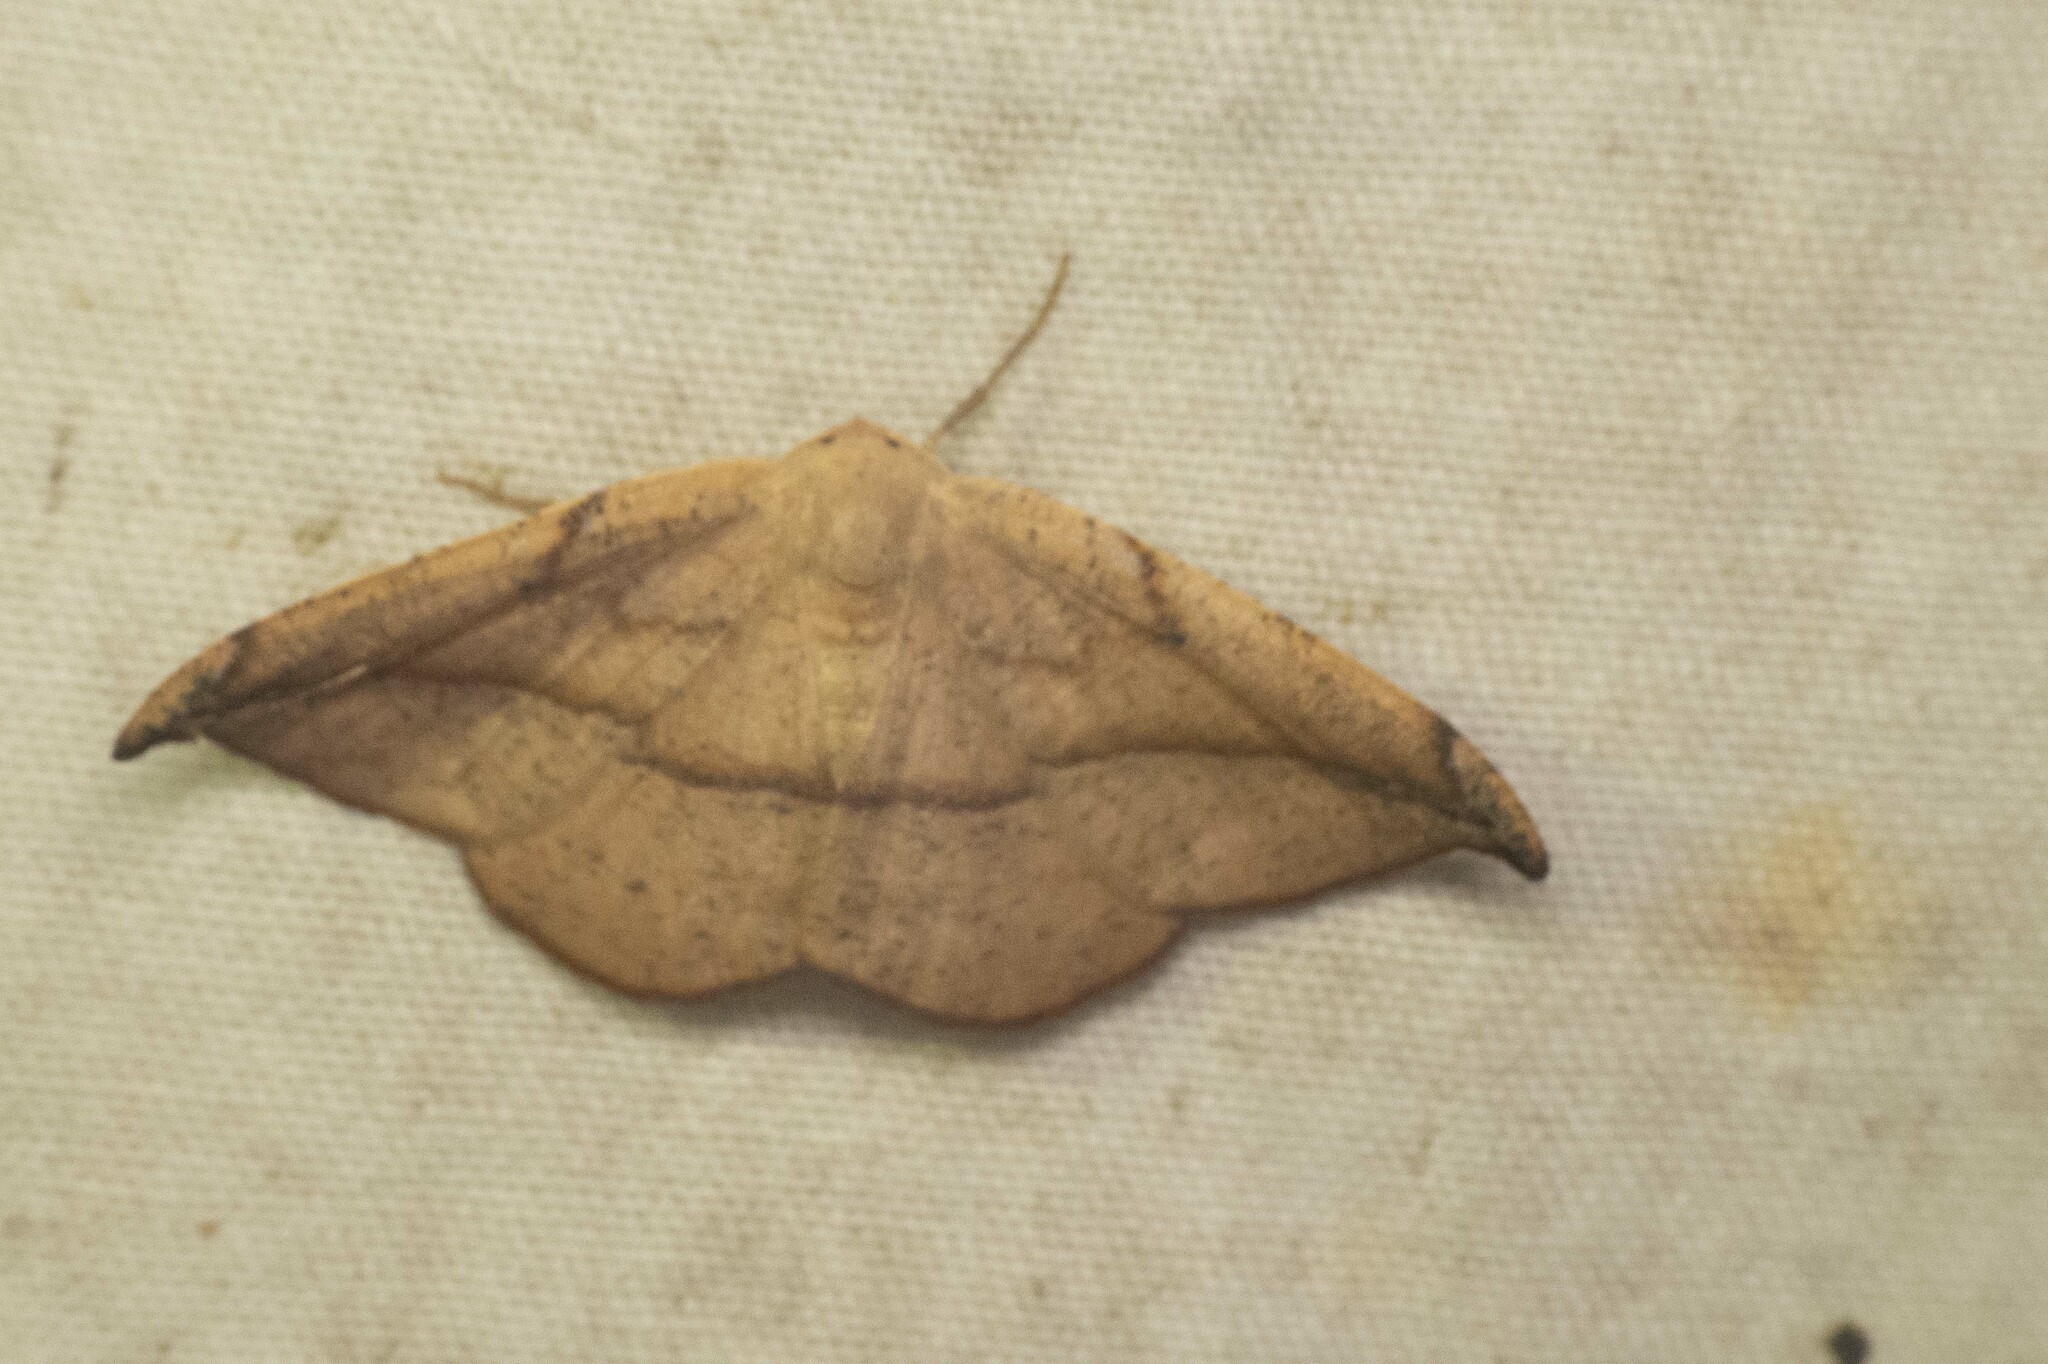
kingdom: Animalia
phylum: Arthropoda
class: Insecta
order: Lepidoptera
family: Geometridae
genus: Patalene
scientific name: Patalene olyzonaria
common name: Juniper geometer moth
